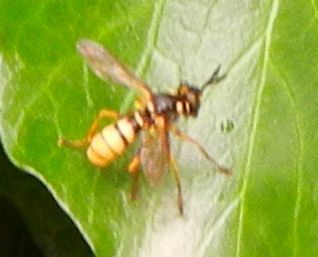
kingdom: Animalia
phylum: Arthropoda
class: Insecta
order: Diptera
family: Conopidae
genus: Leopoldius
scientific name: Leopoldius signatus
